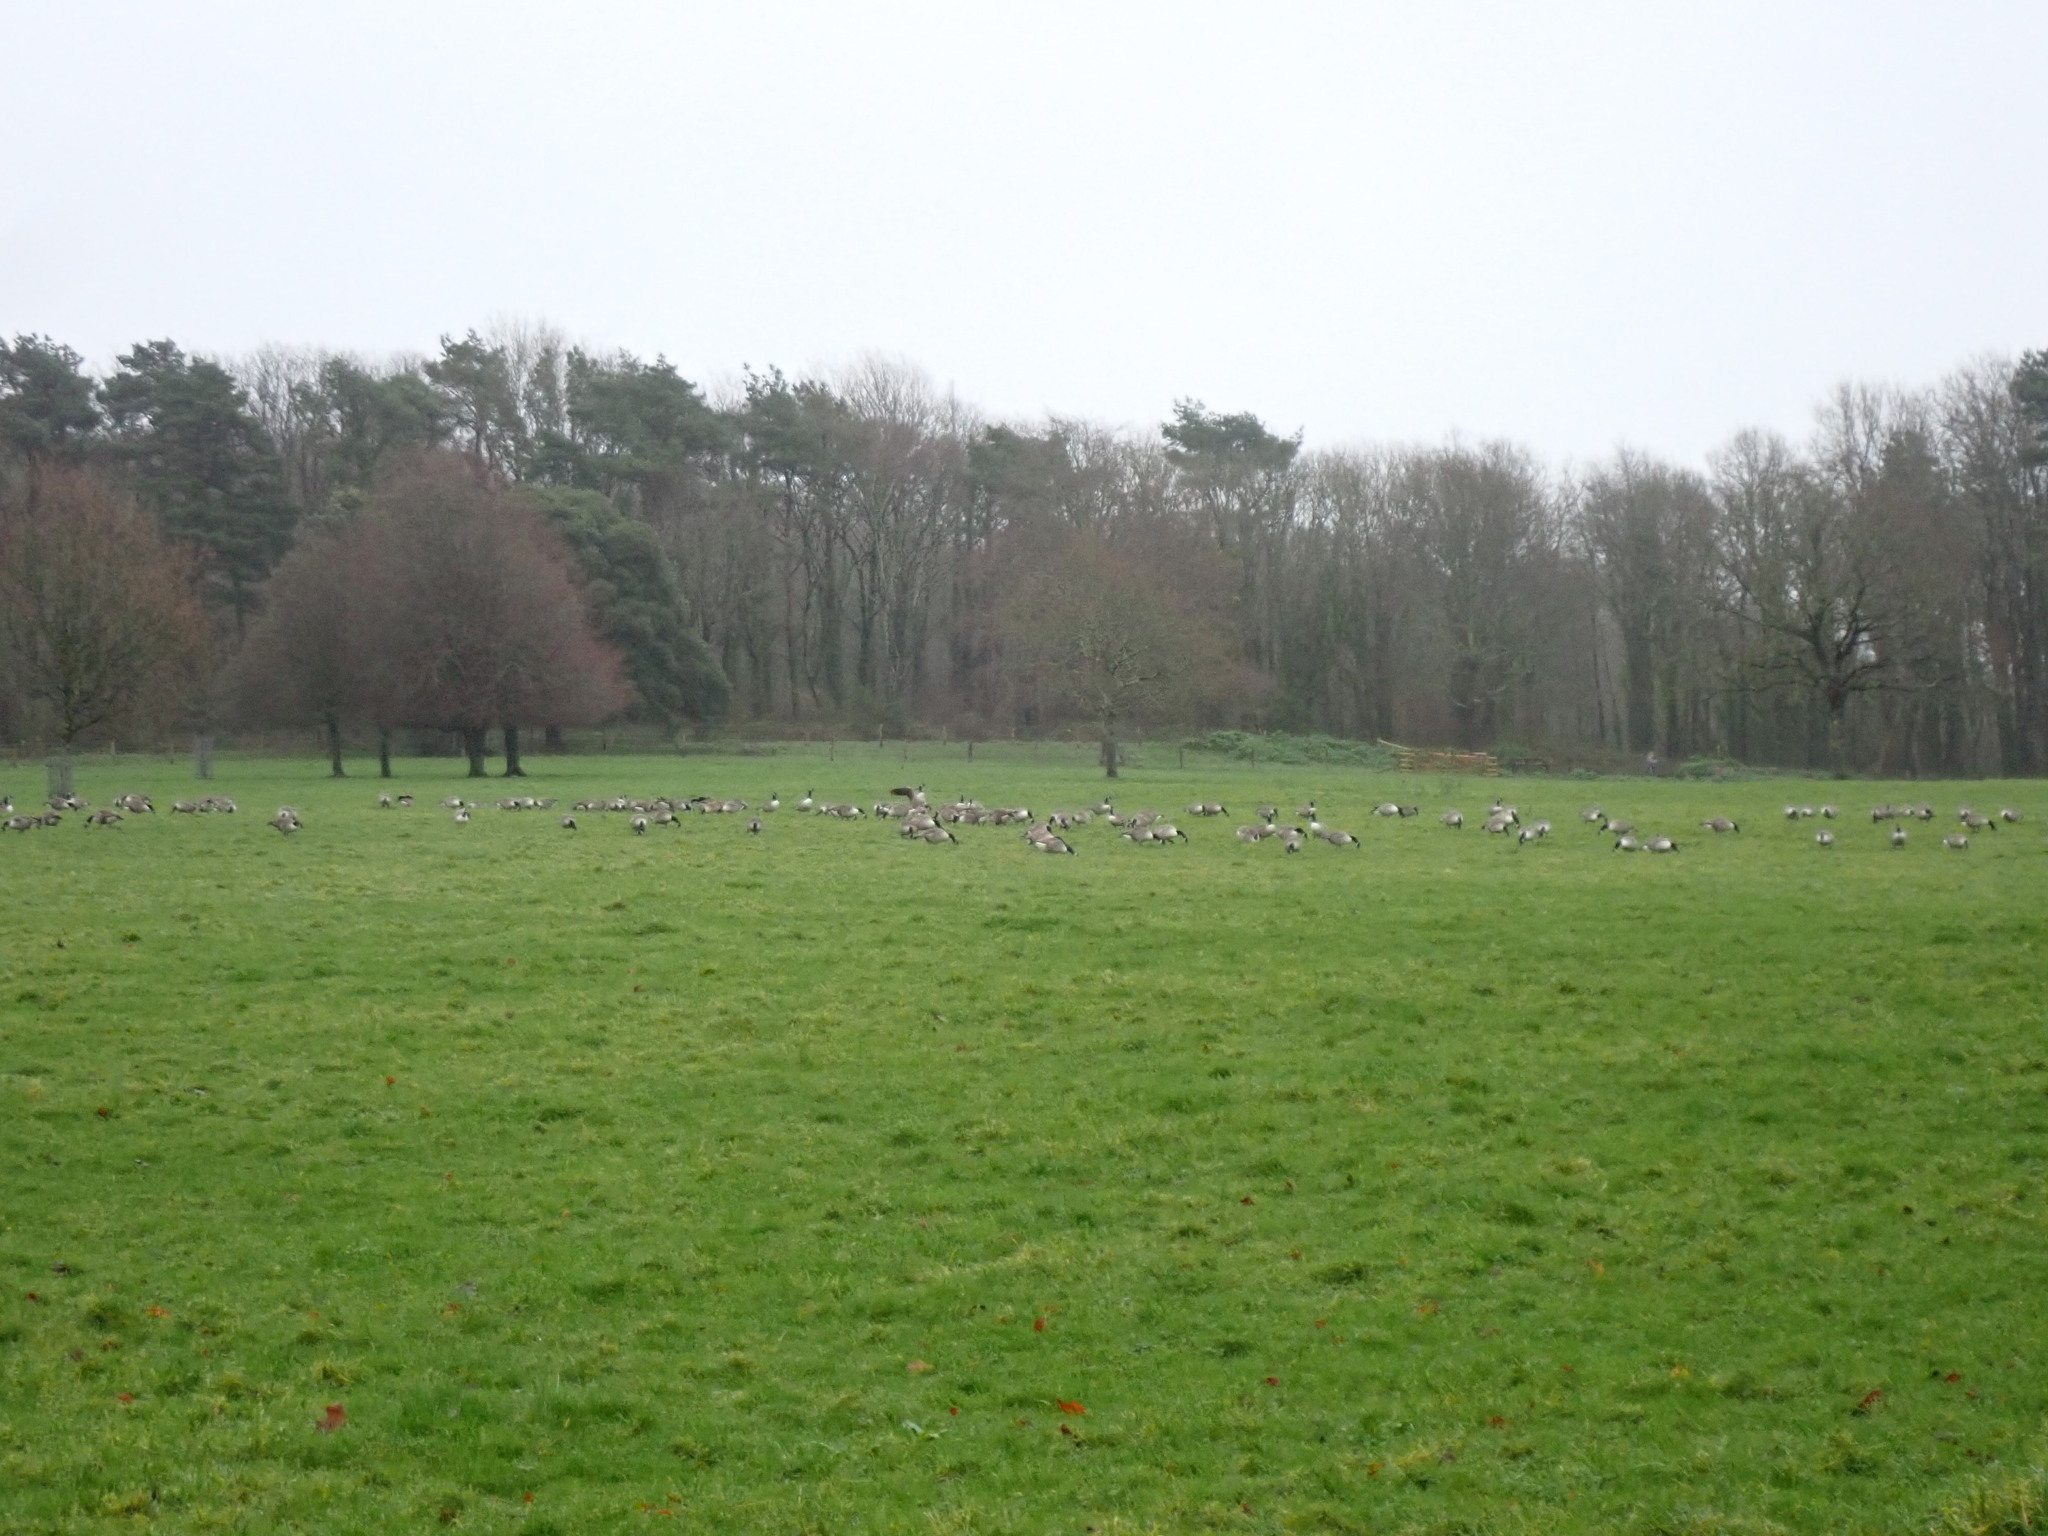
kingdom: Animalia
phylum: Chordata
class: Aves
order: Anseriformes
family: Anatidae
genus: Branta
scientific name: Branta canadensis
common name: Canada goose
